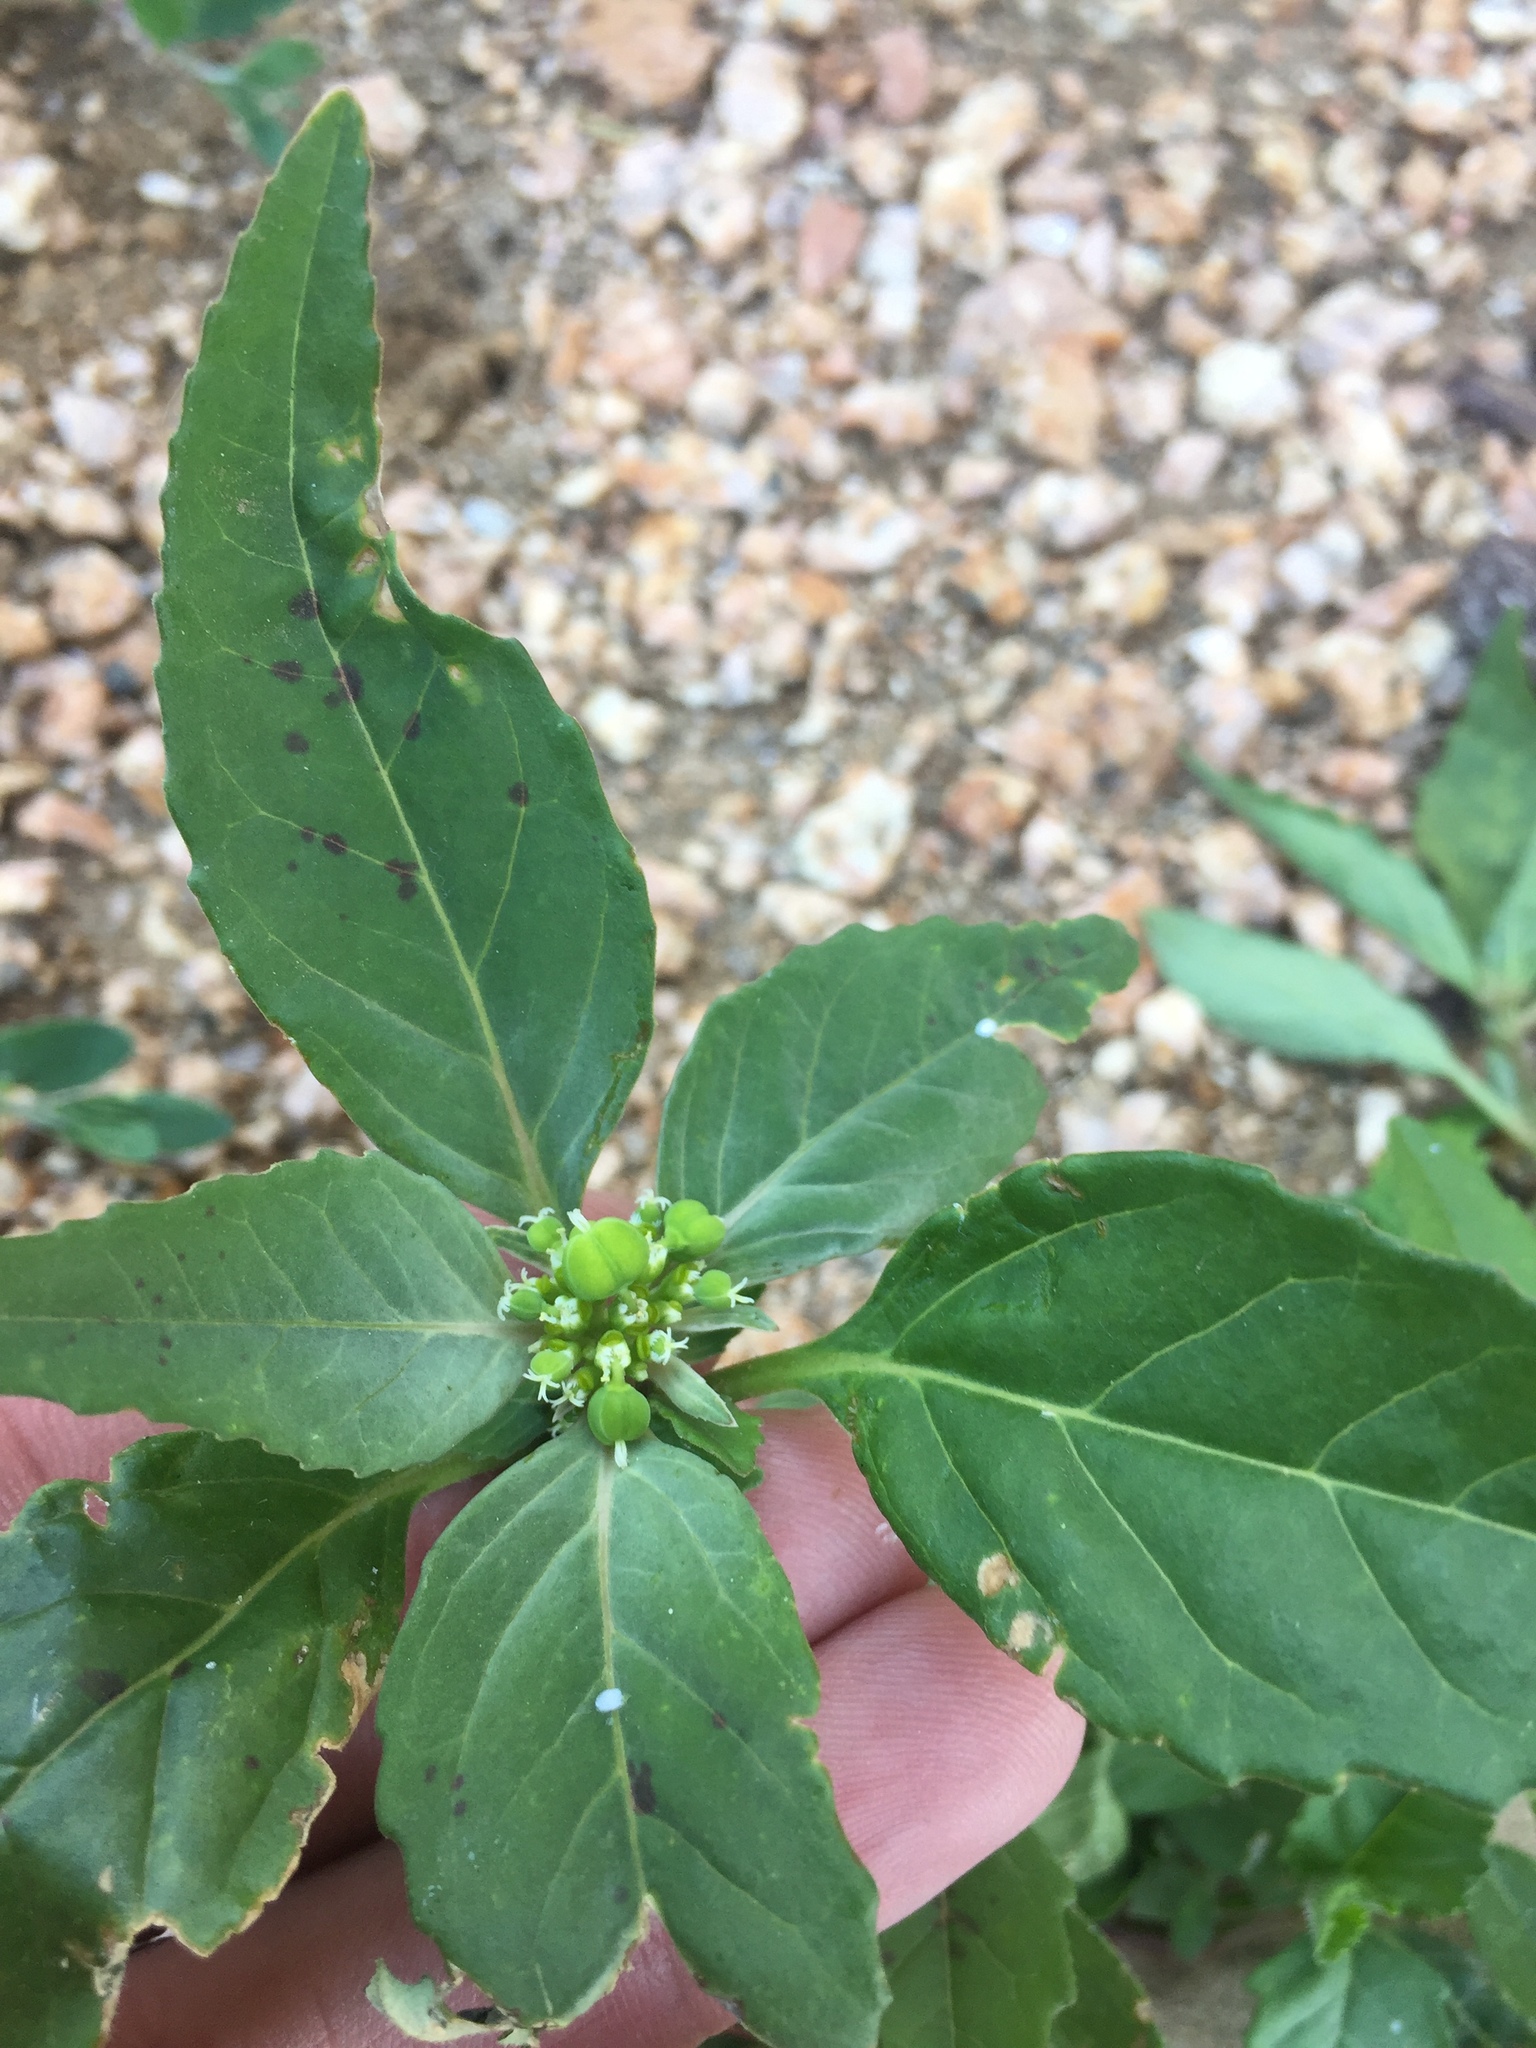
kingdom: Plantae
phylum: Tracheophyta
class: Magnoliopsida
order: Malpighiales
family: Euphorbiaceae
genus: Euphorbia
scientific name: Euphorbia dentata
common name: Dentate spurge
